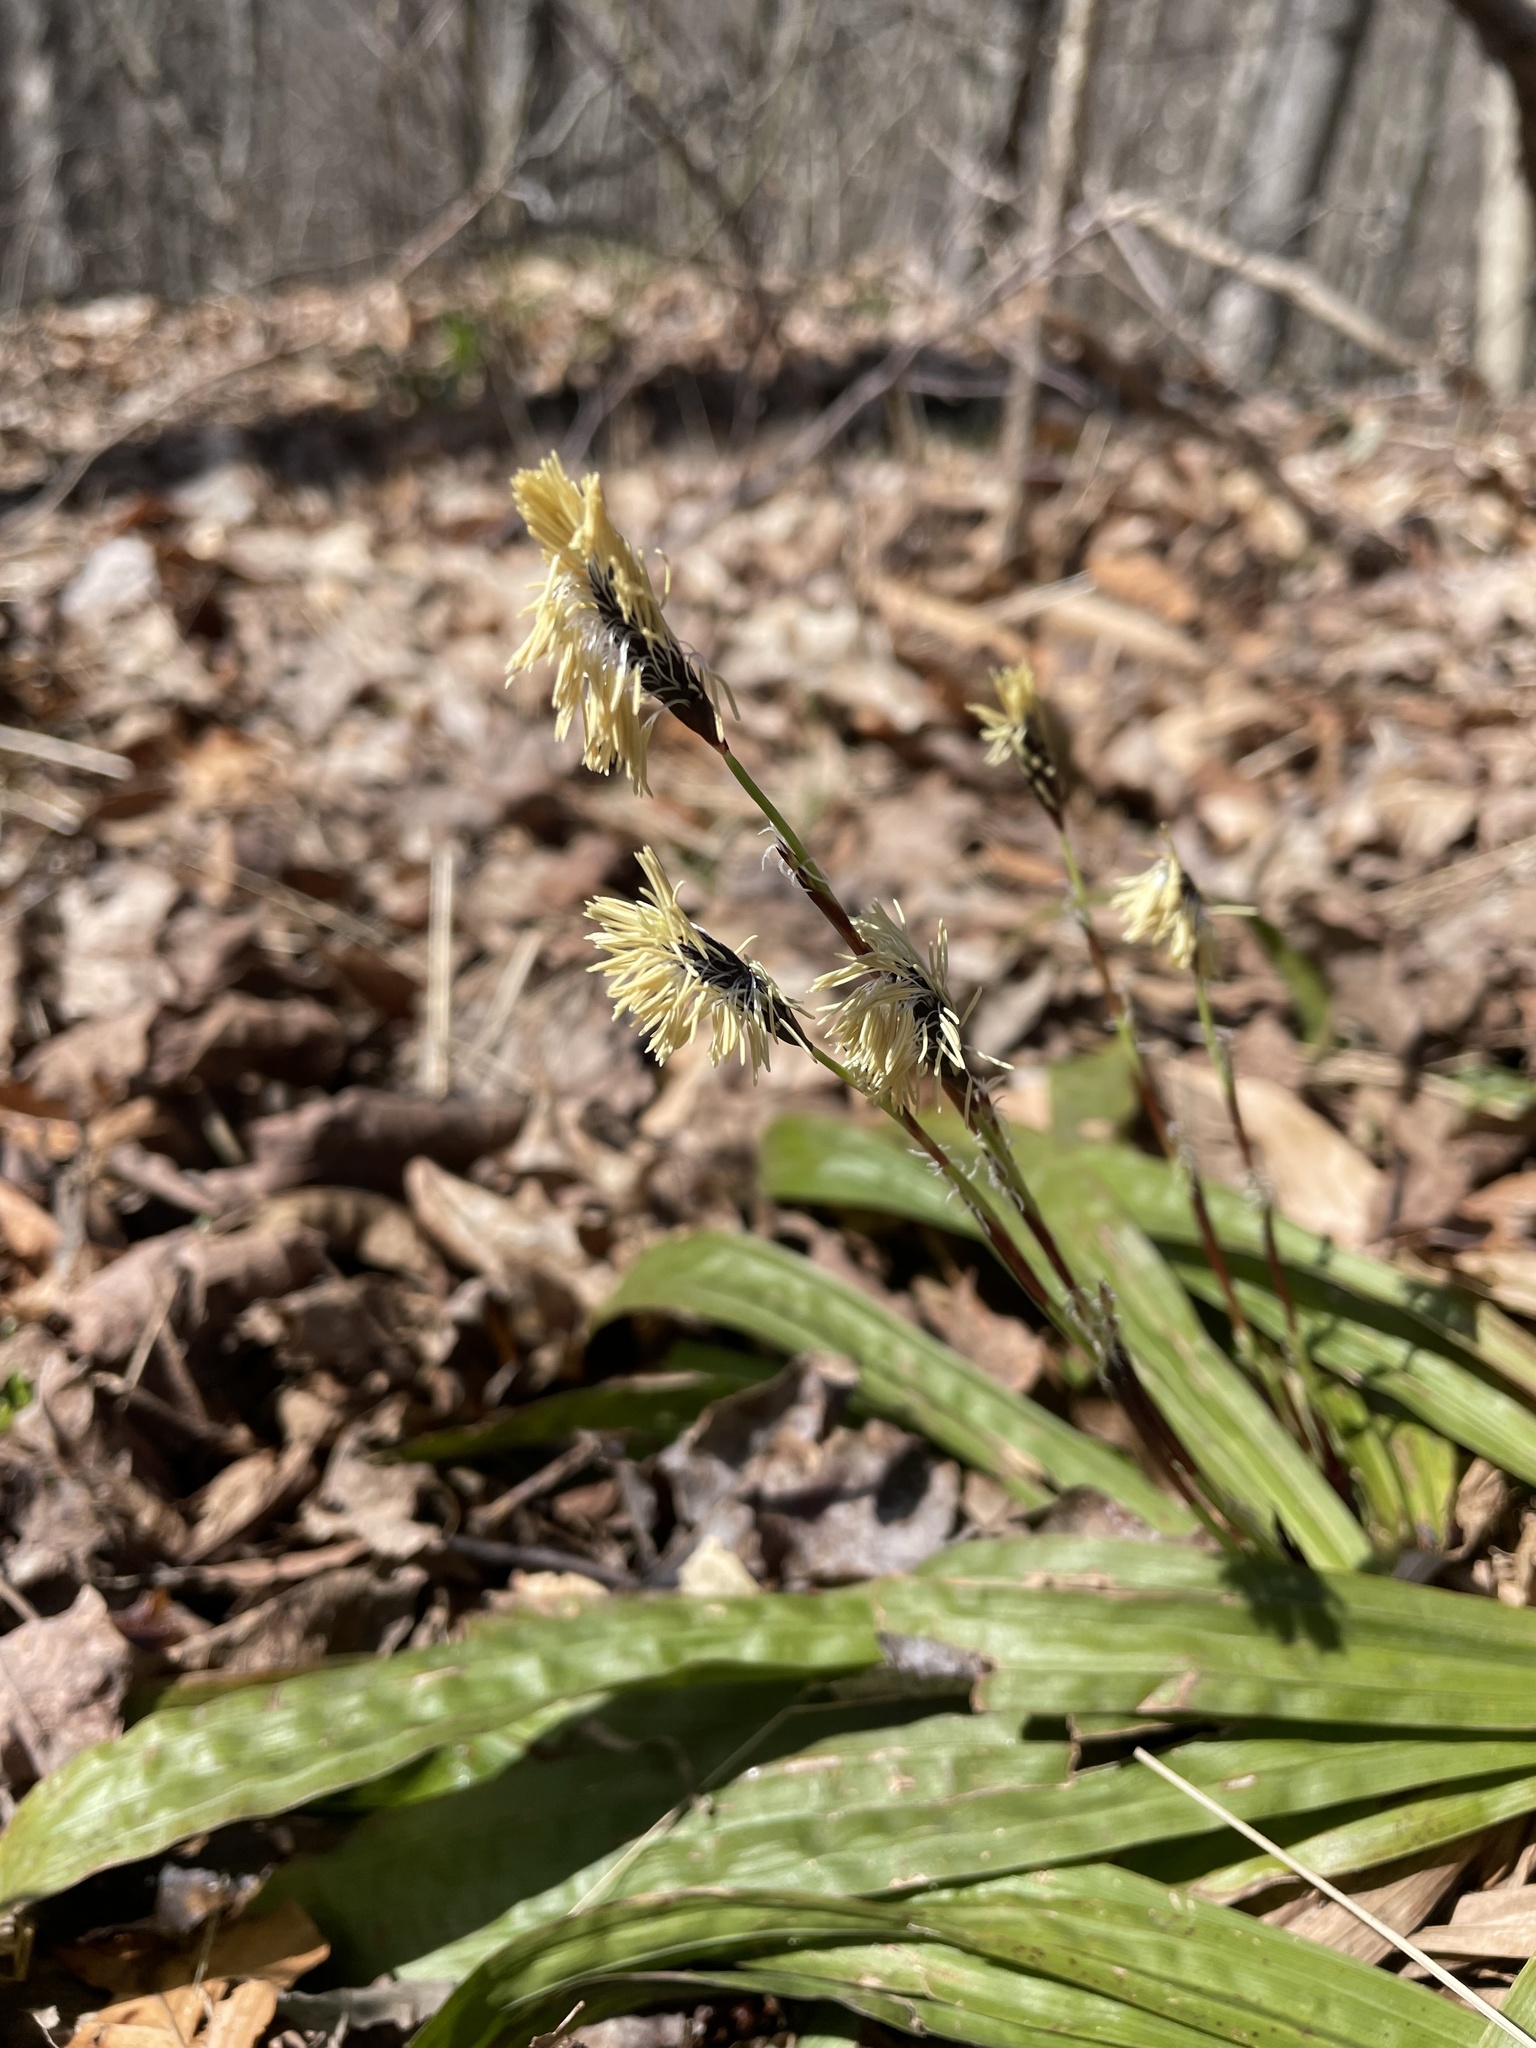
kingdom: Plantae
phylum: Tracheophyta
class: Liliopsida
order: Poales
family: Cyperaceae
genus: Carex
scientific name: Carex plantaginea
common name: Plantain-leaved sedge
